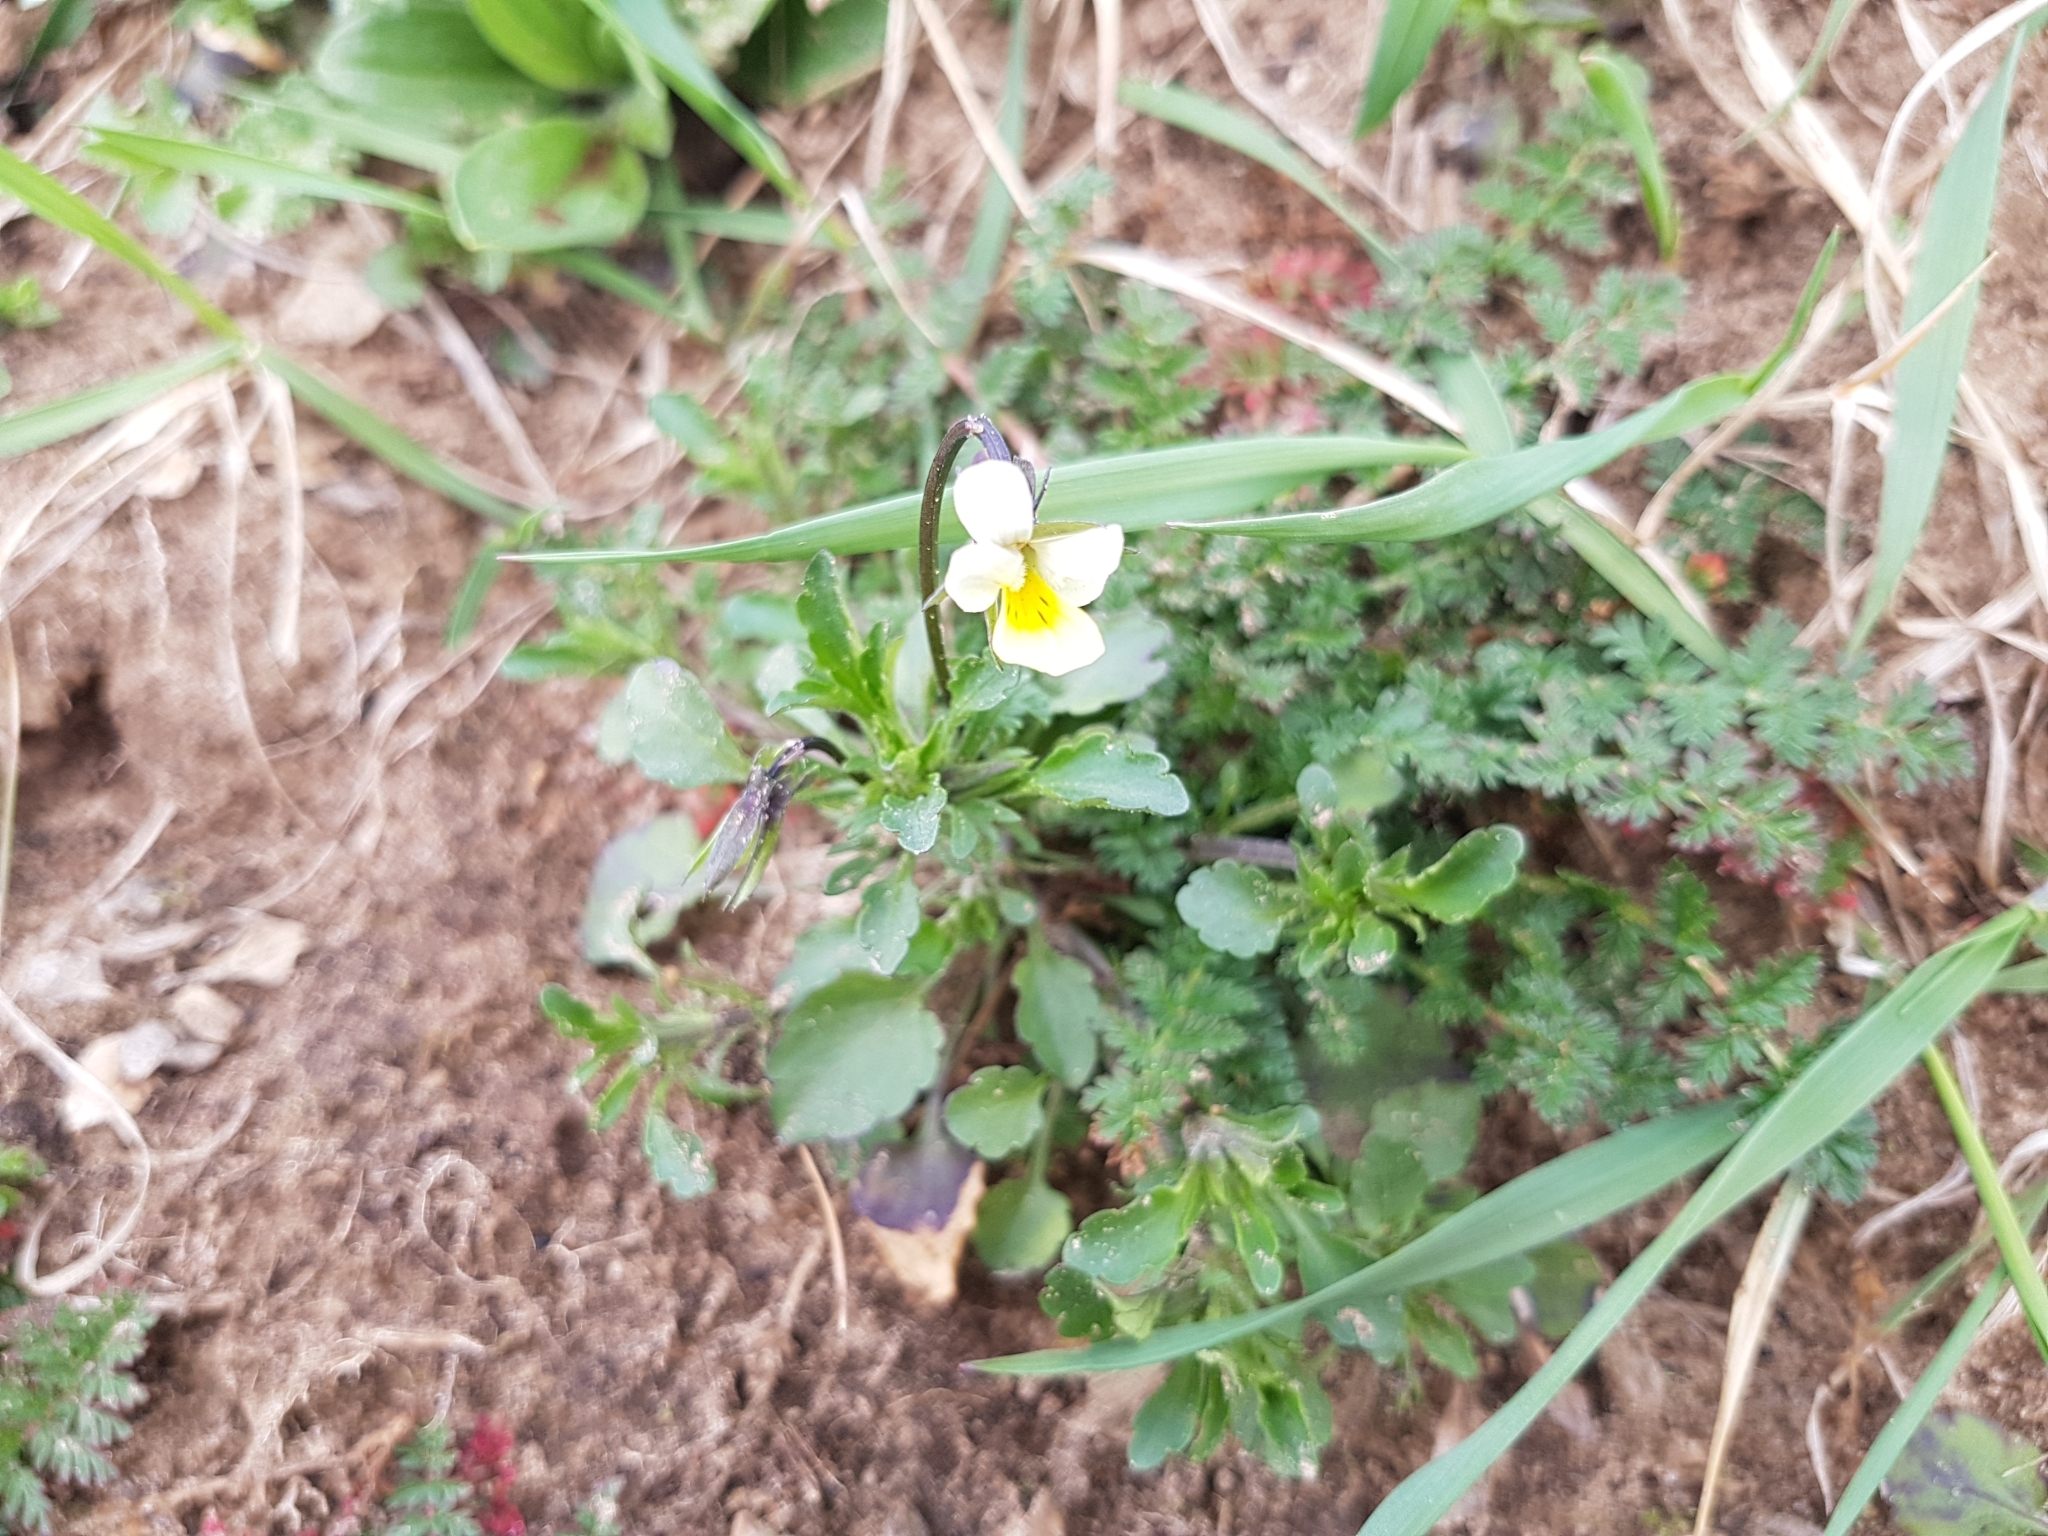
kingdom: Plantae
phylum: Tracheophyta
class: Magnoliopsida
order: Malpighiales
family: Violaceae
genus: Viola
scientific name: Viola arvensis
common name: Field pansy
